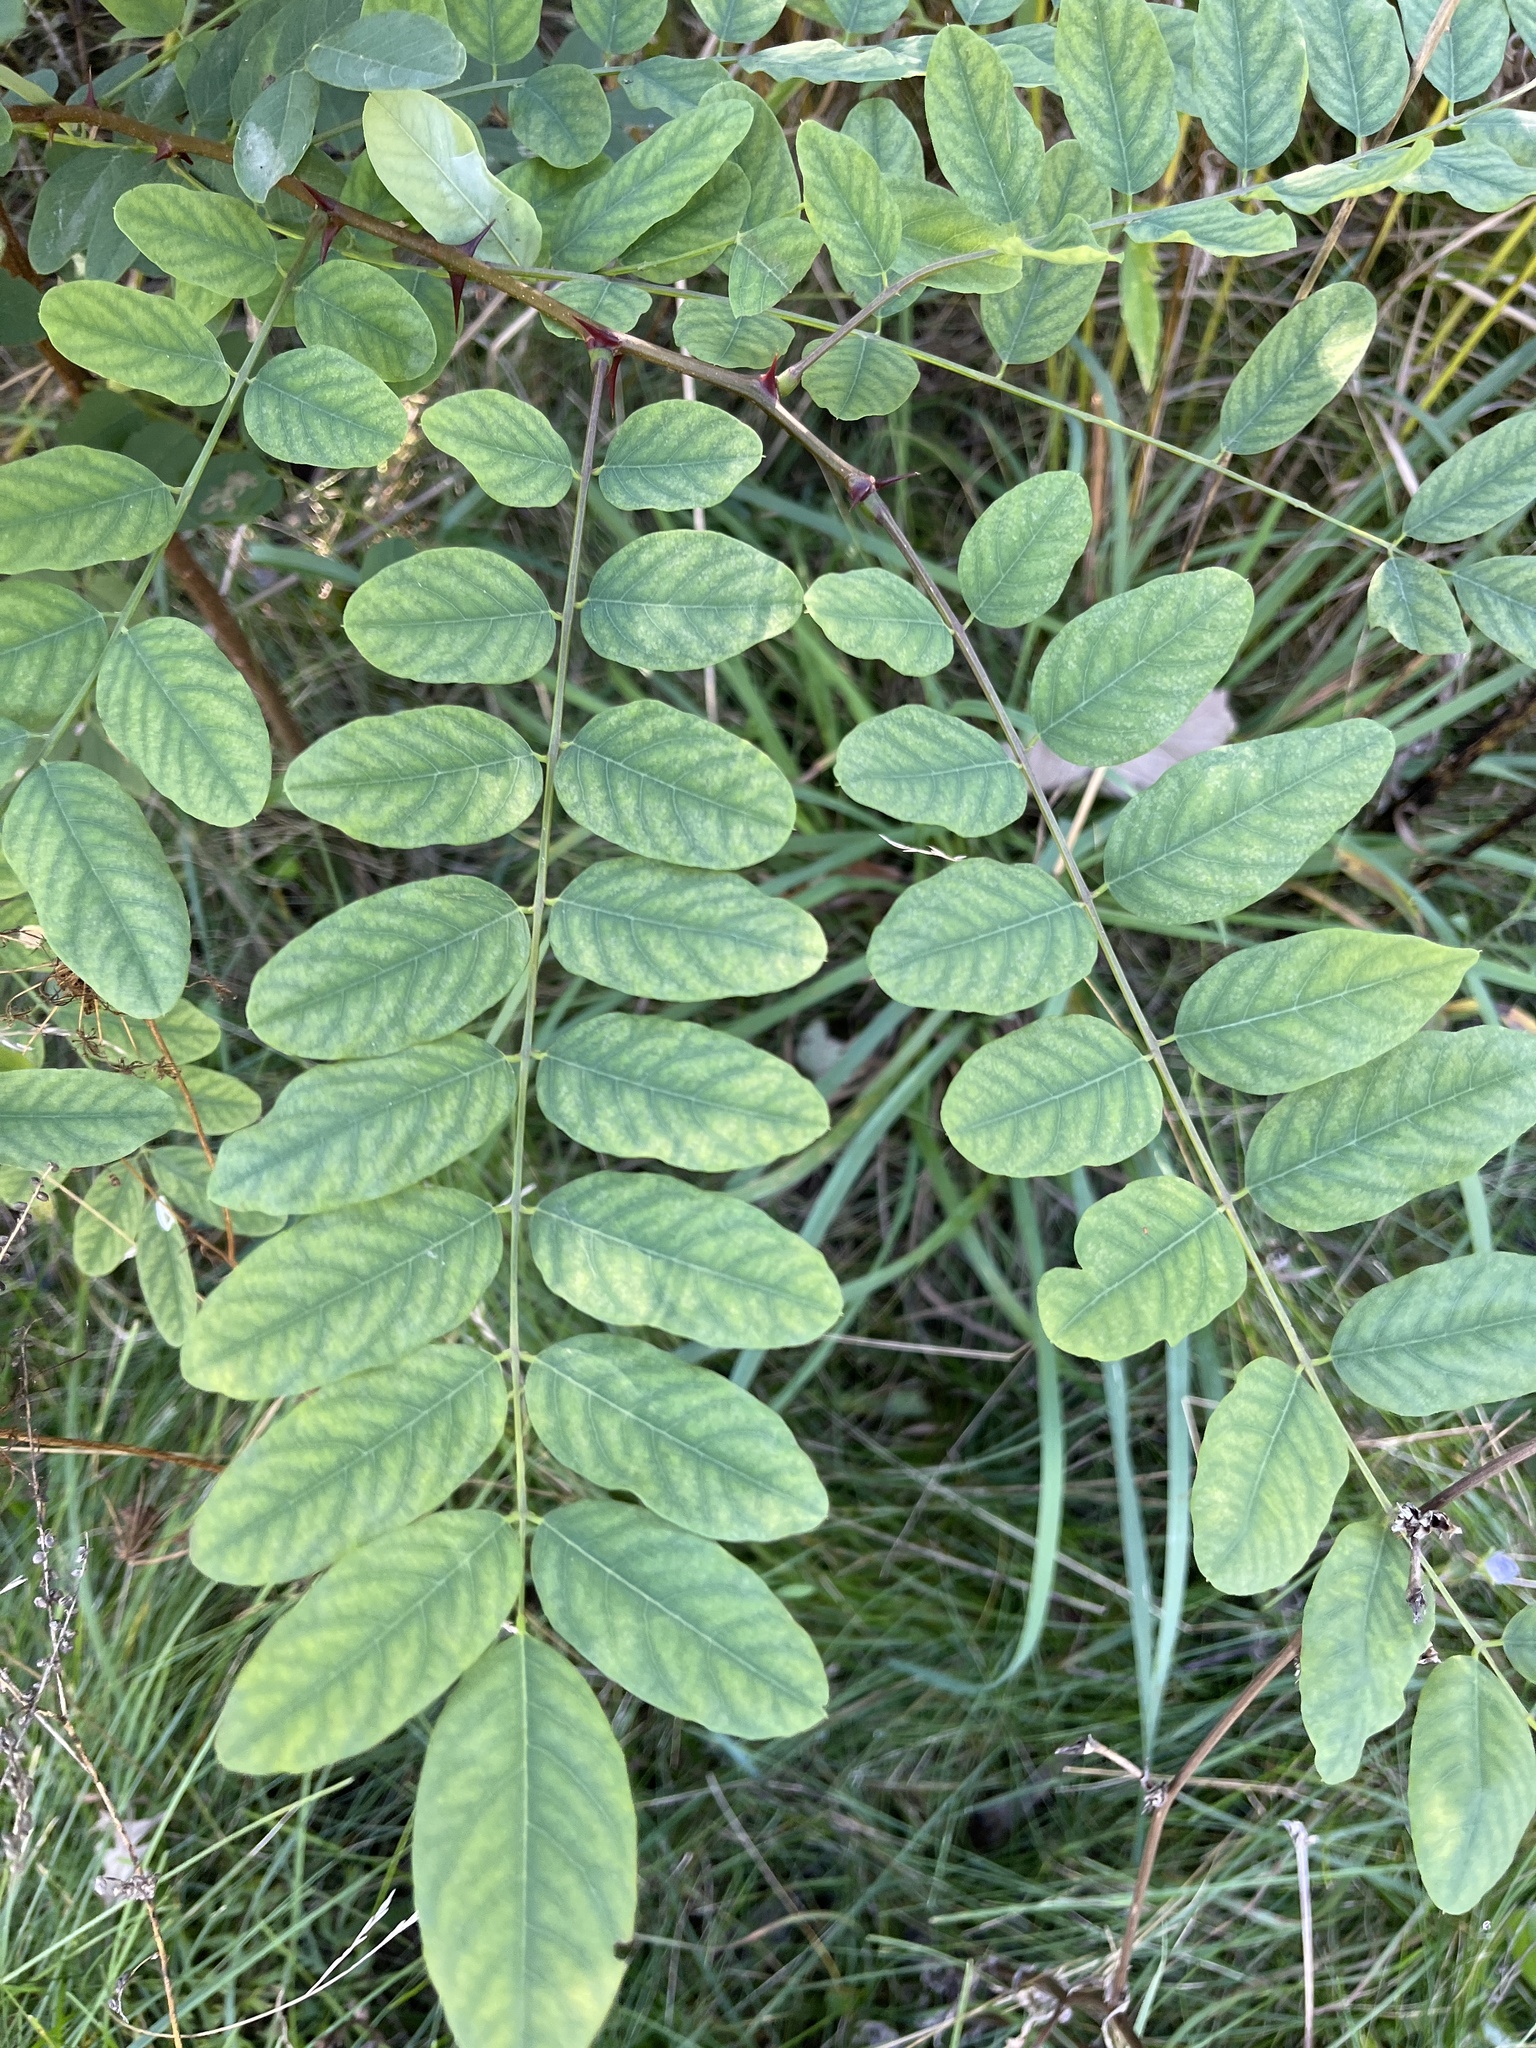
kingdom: Plantae
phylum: Tracheophyta
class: Magnoliopsida
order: Fabales
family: Fabaceae
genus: Robinia
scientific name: Robinia pseudoacacia
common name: Black locust
